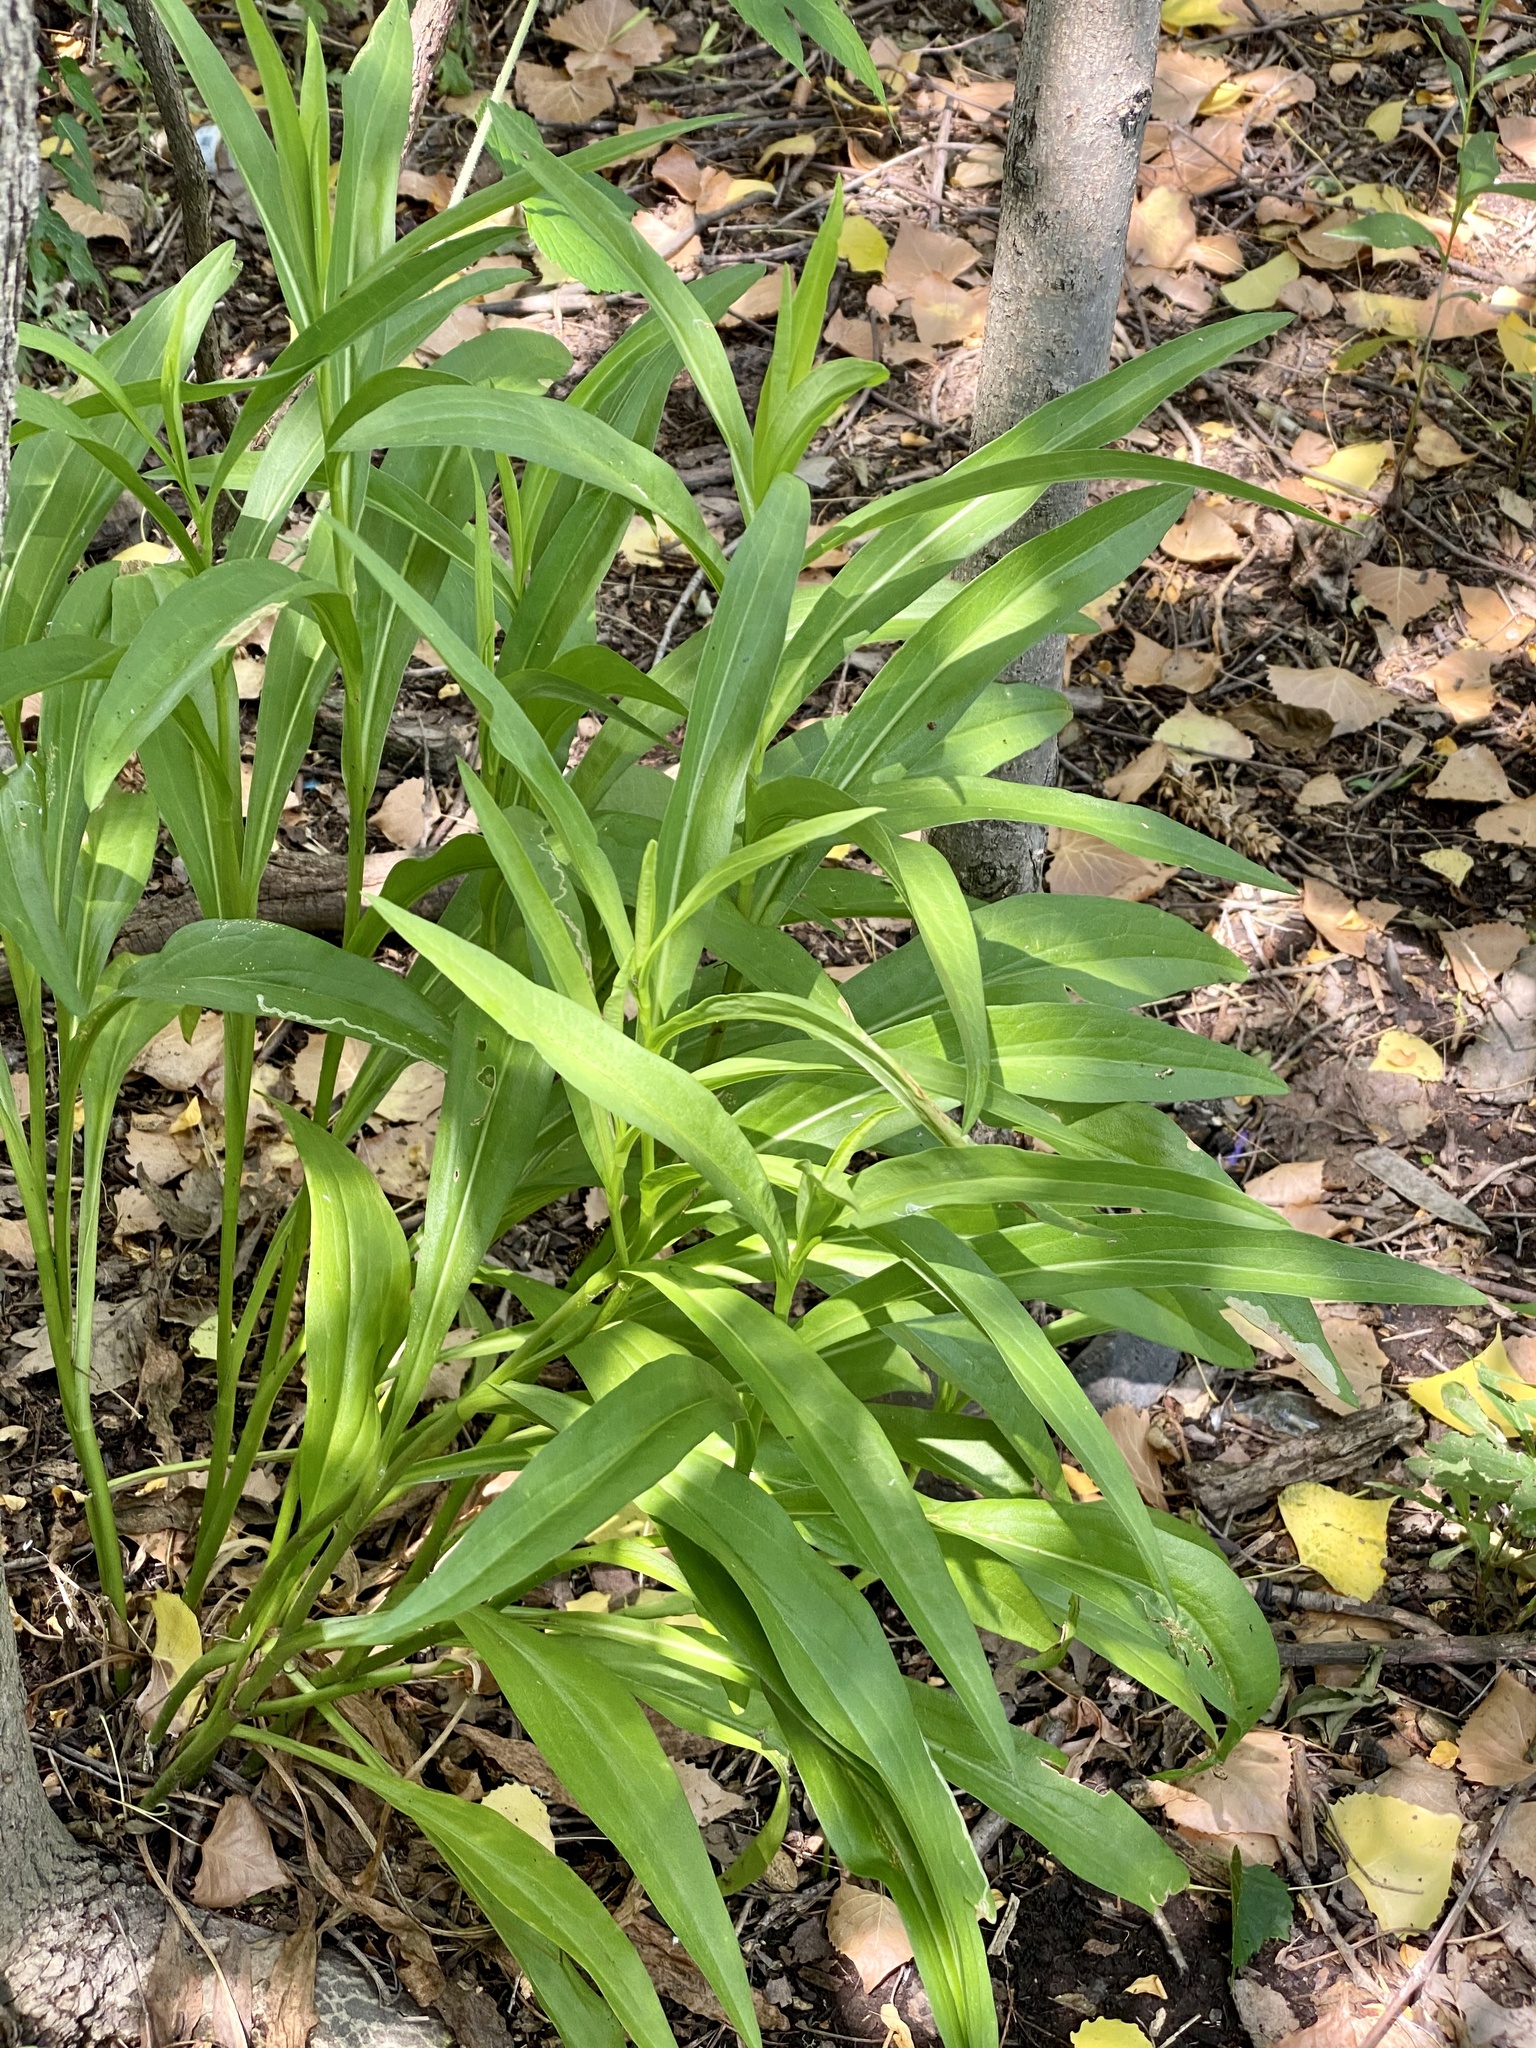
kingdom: Plantae
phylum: Tracheophyta
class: Magnoliopsida
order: Asterales
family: Asteraceae
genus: Solidago
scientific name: Solidago sempervirens
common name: Salt-marsh goldenrod
